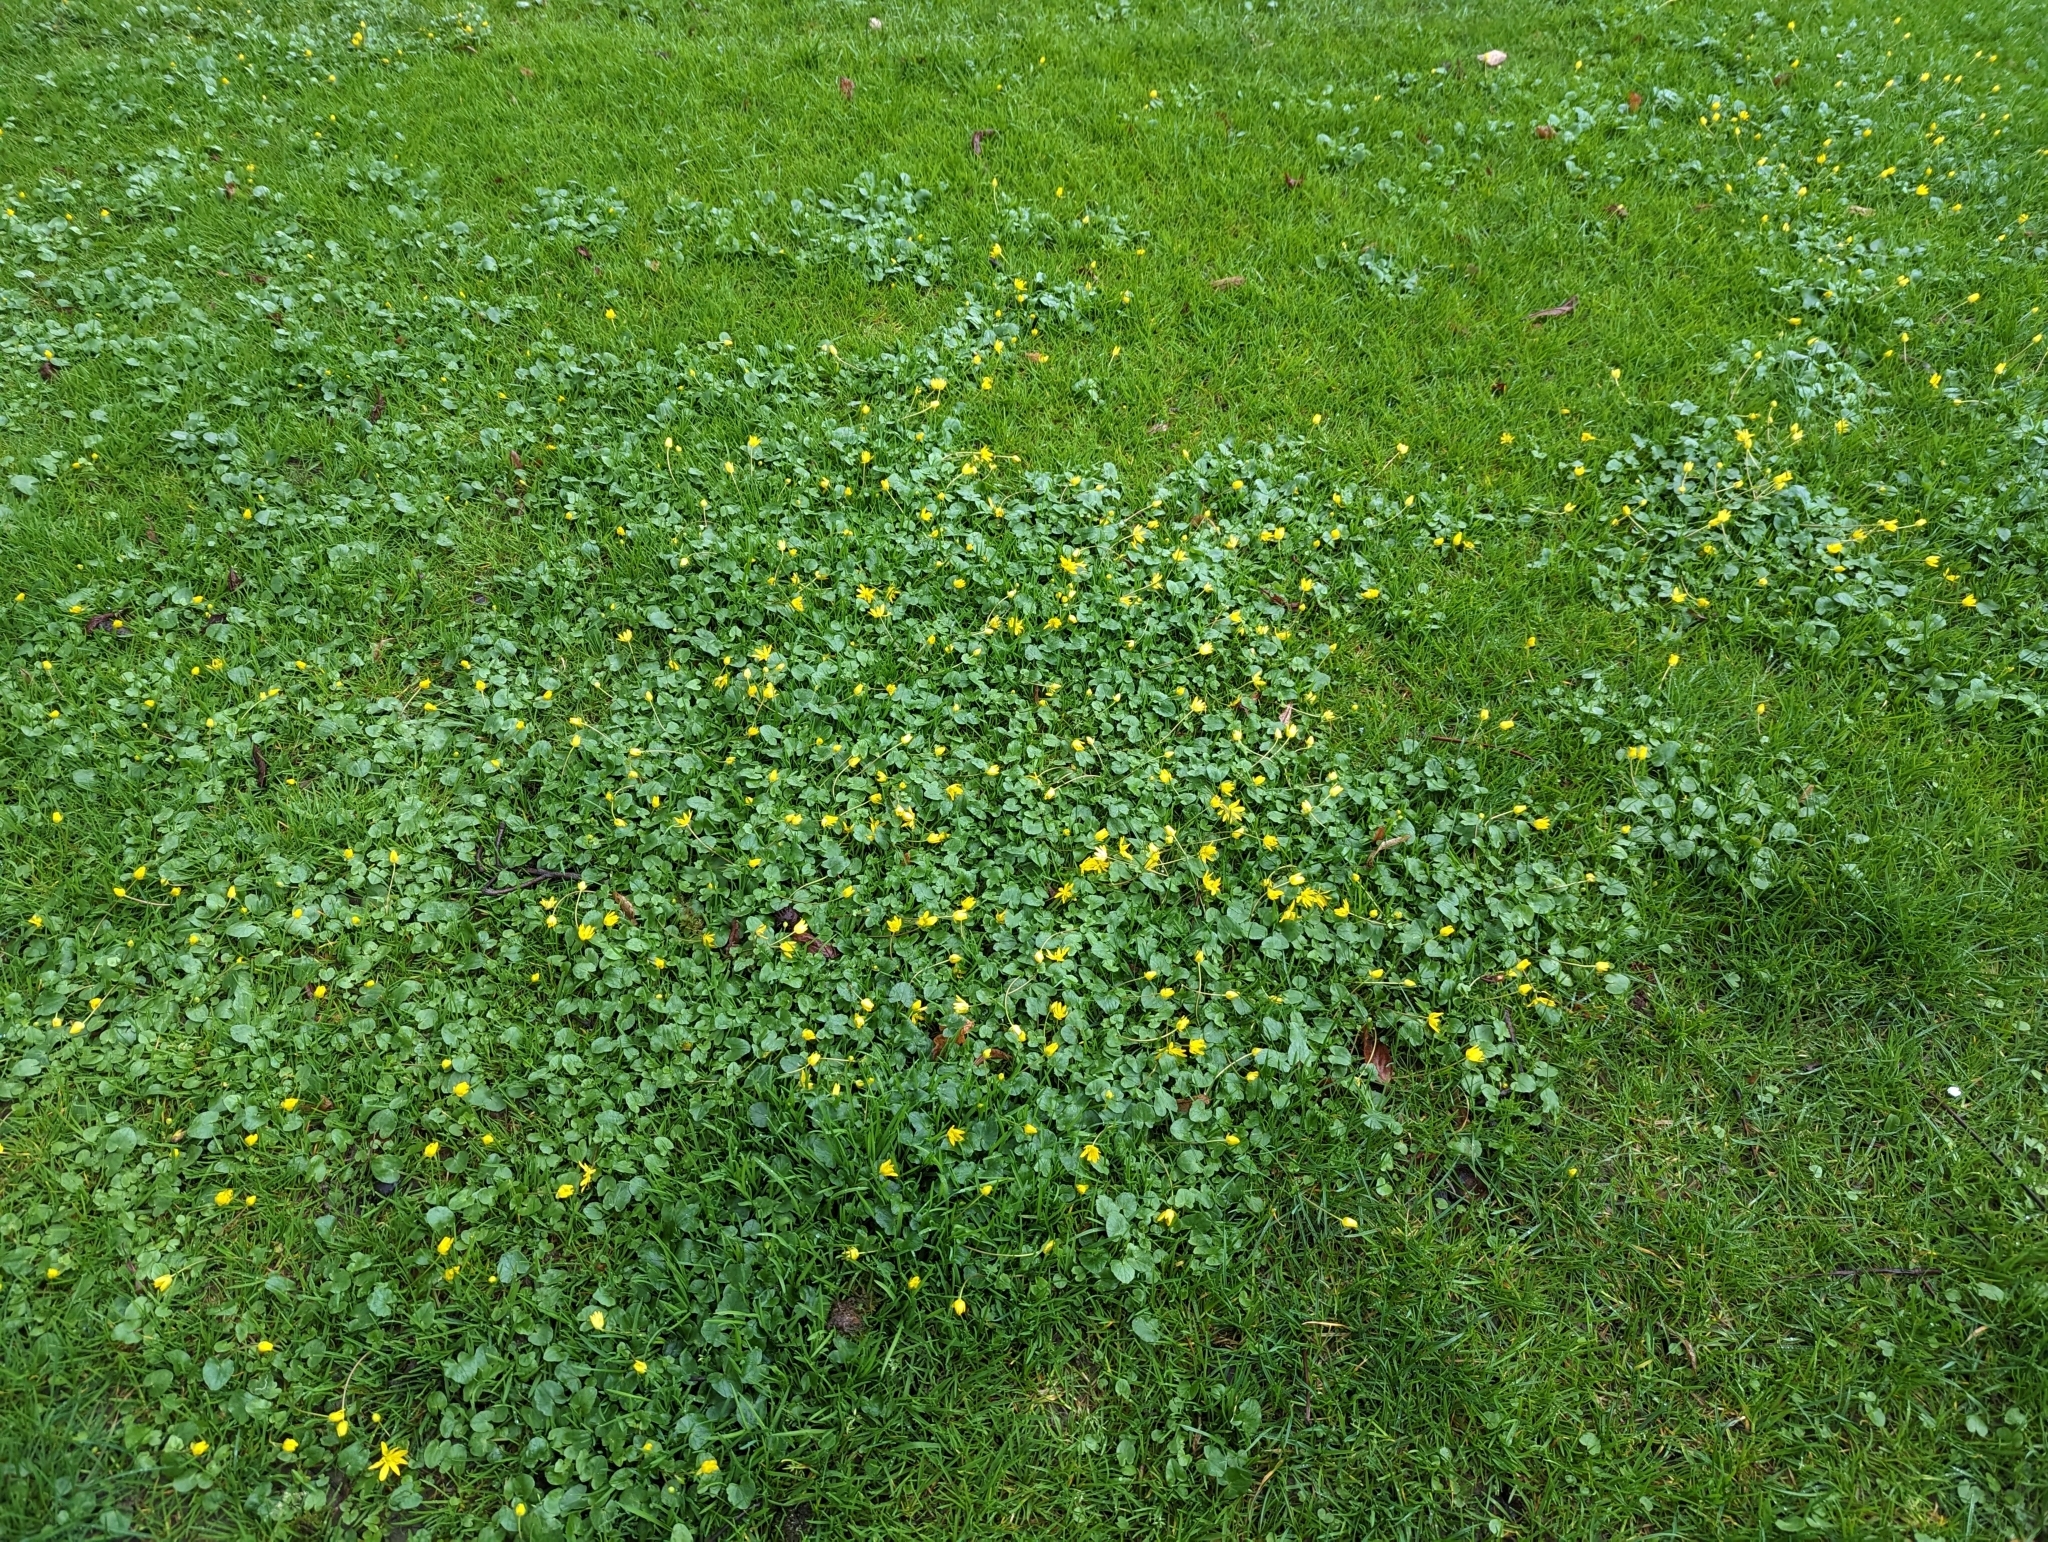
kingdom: Plantae
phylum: Tracheophyta
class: Magnoliopsida
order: Ranunculales
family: Ranunculaceae
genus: Ficaria
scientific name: Ficaria verna
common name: Lesser celandine
